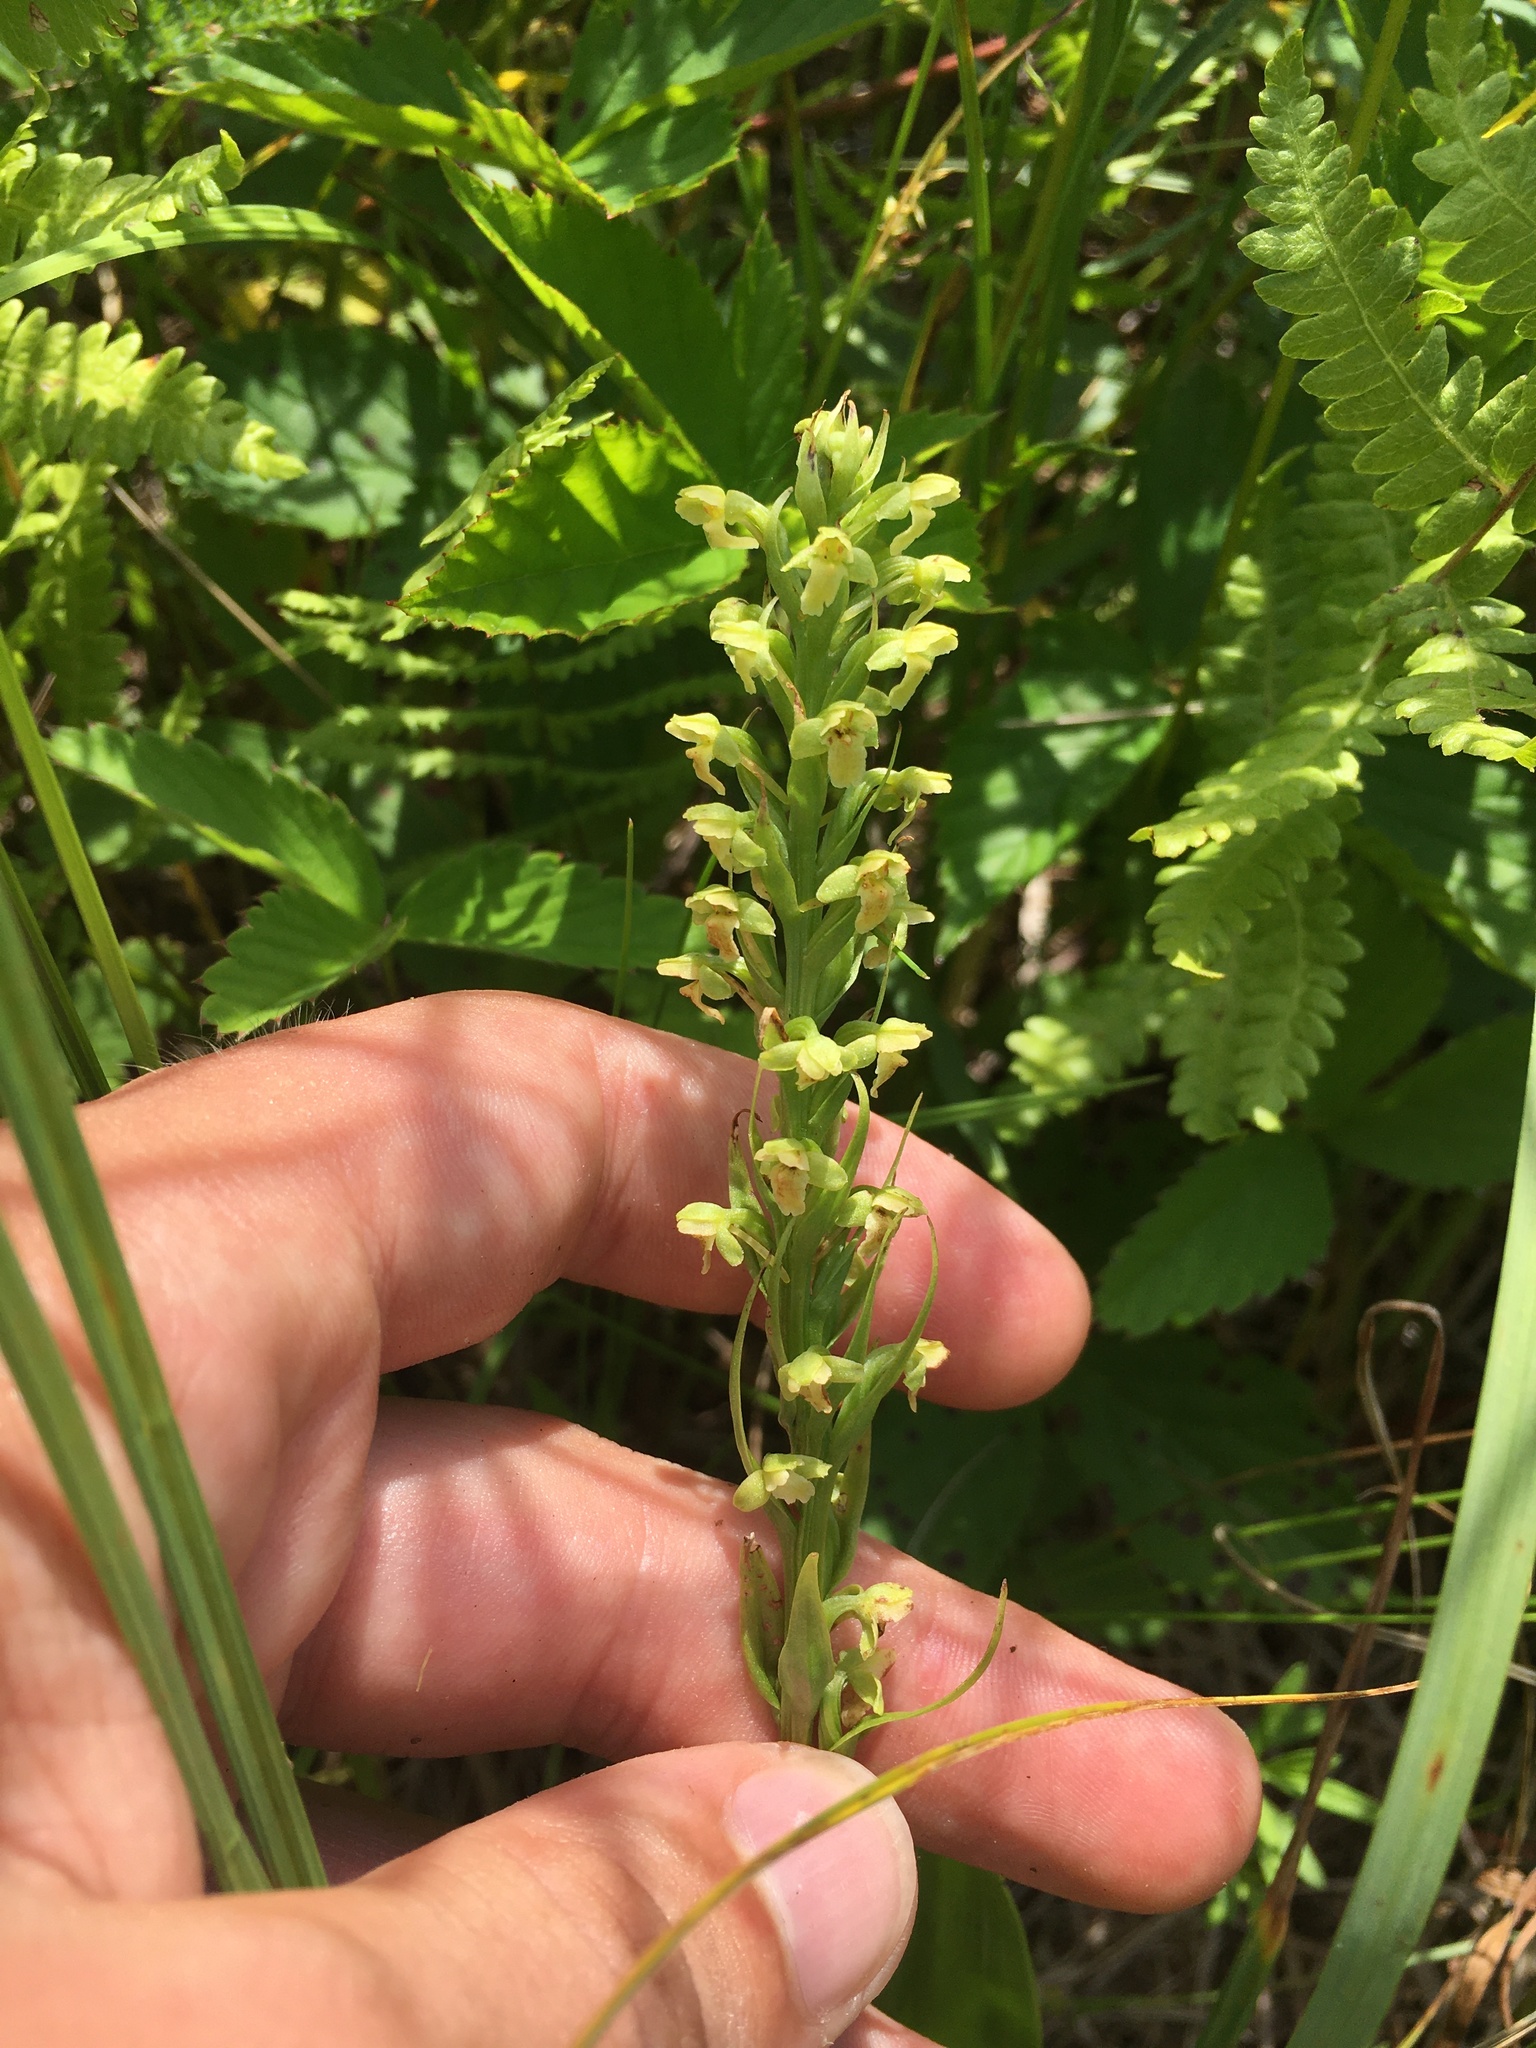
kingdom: Plantae
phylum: Tracheophyta
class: Liliopsida
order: Asparagales
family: Orchidaceae
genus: Platanthera
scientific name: Platanthera flava
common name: Gypsy-spikes
